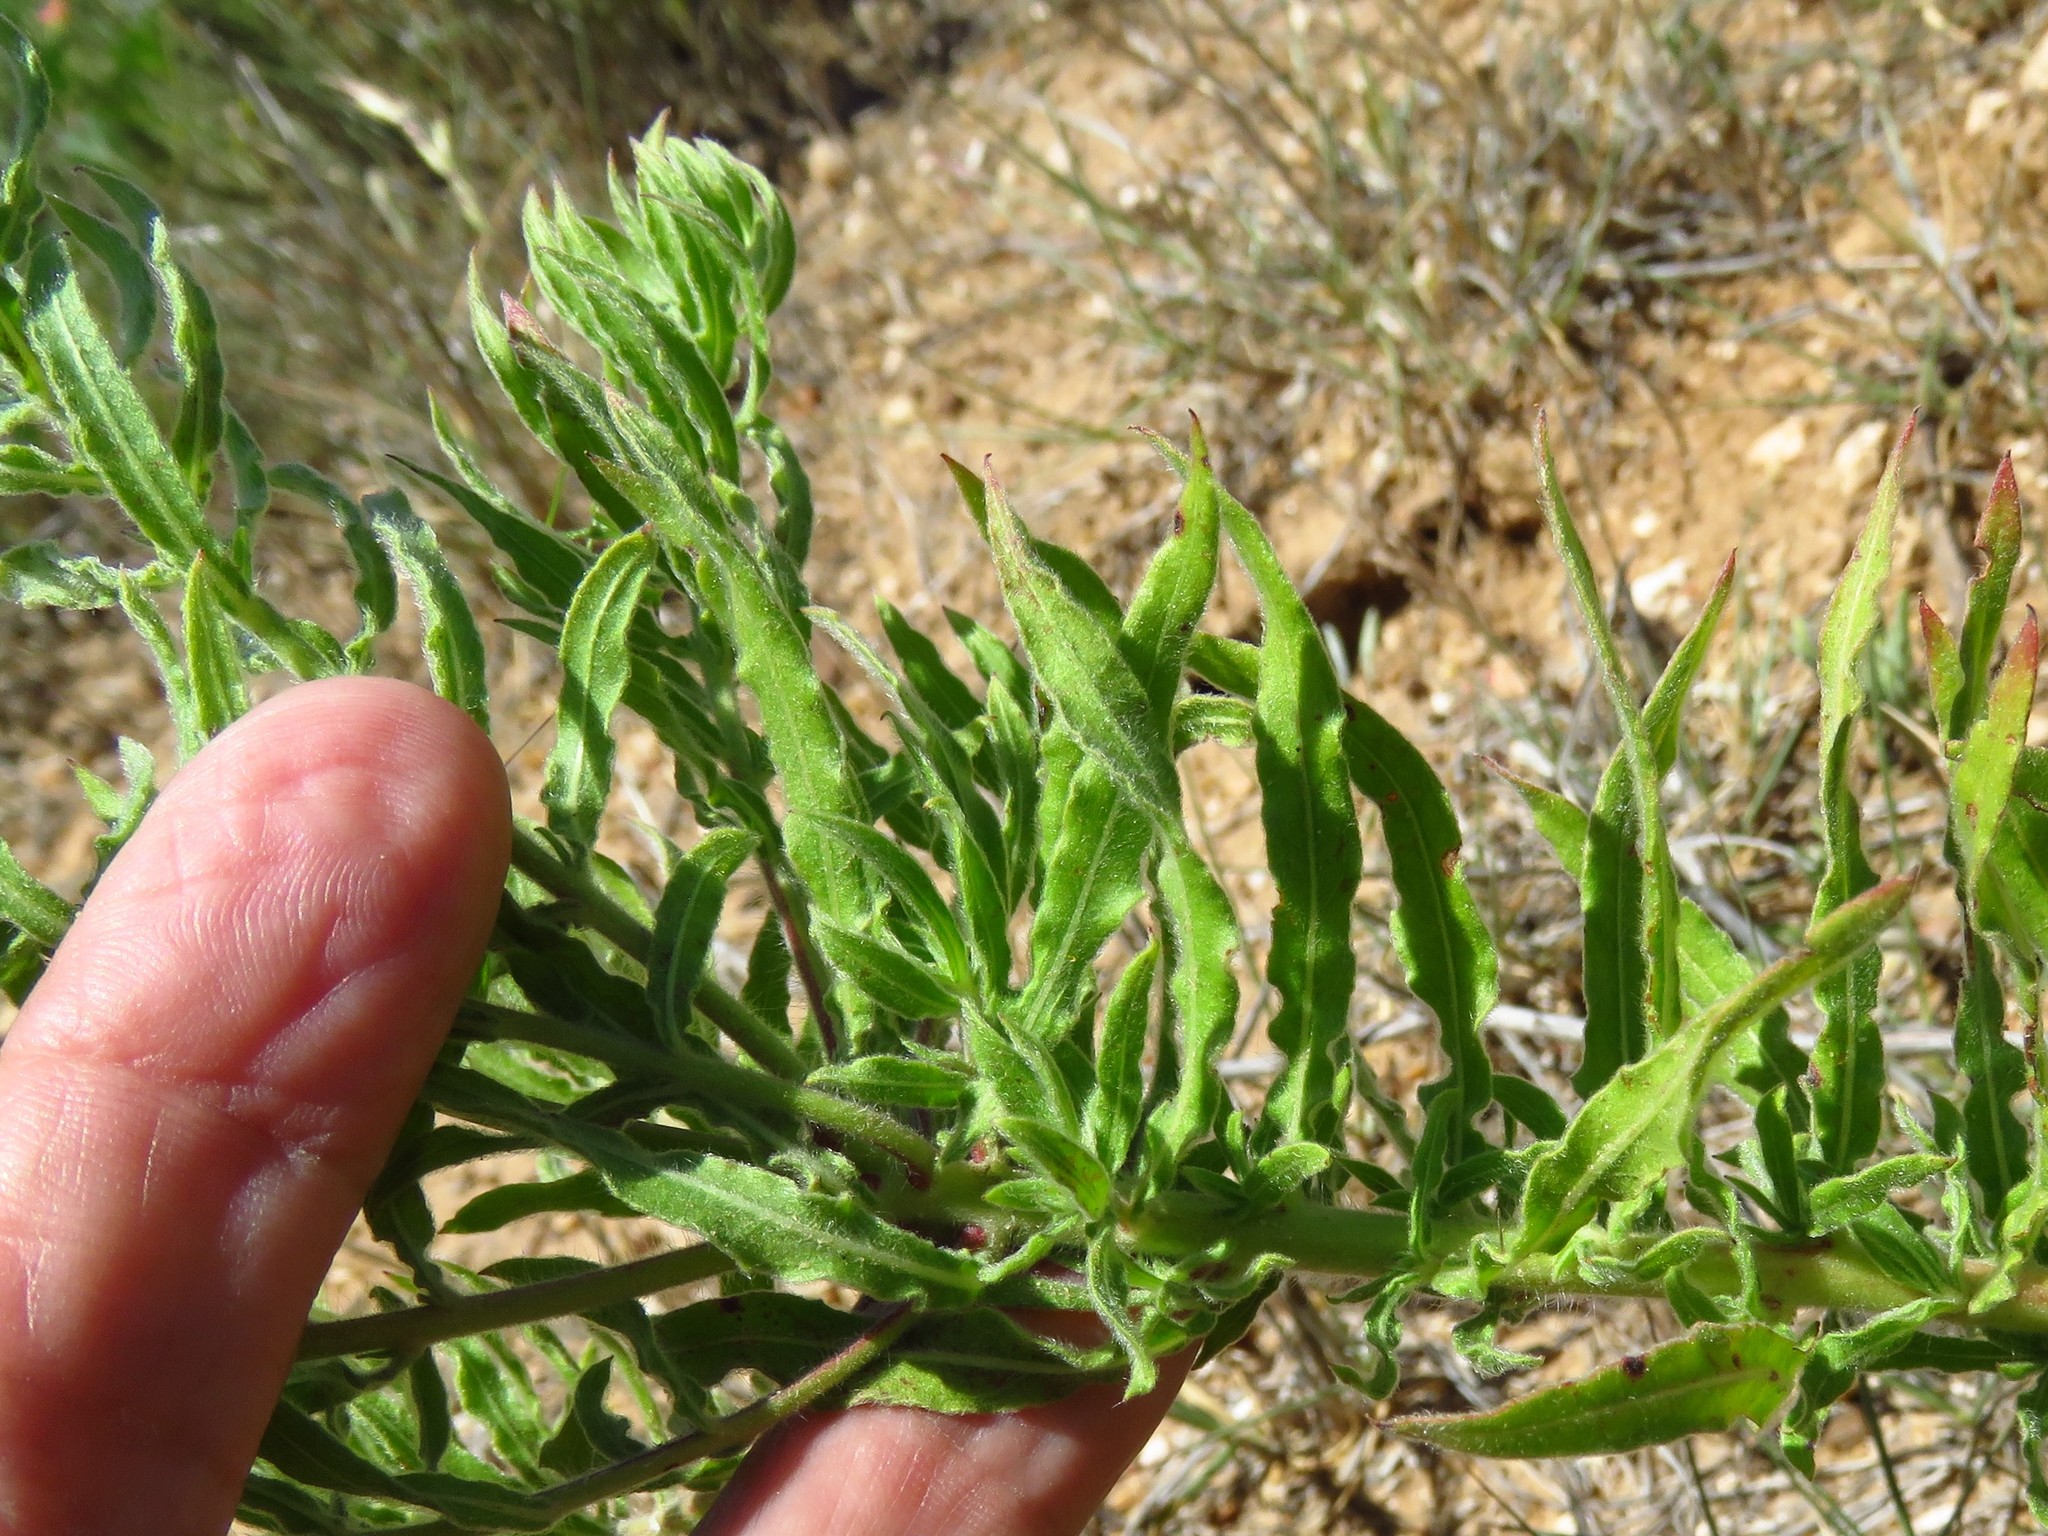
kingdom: Plantae
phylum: Tracheophyta
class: Magnoliopsida
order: Myrtales
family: Onagraceae
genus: Oenothera
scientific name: Oenothera cinerea
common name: Woolly beeblossom
